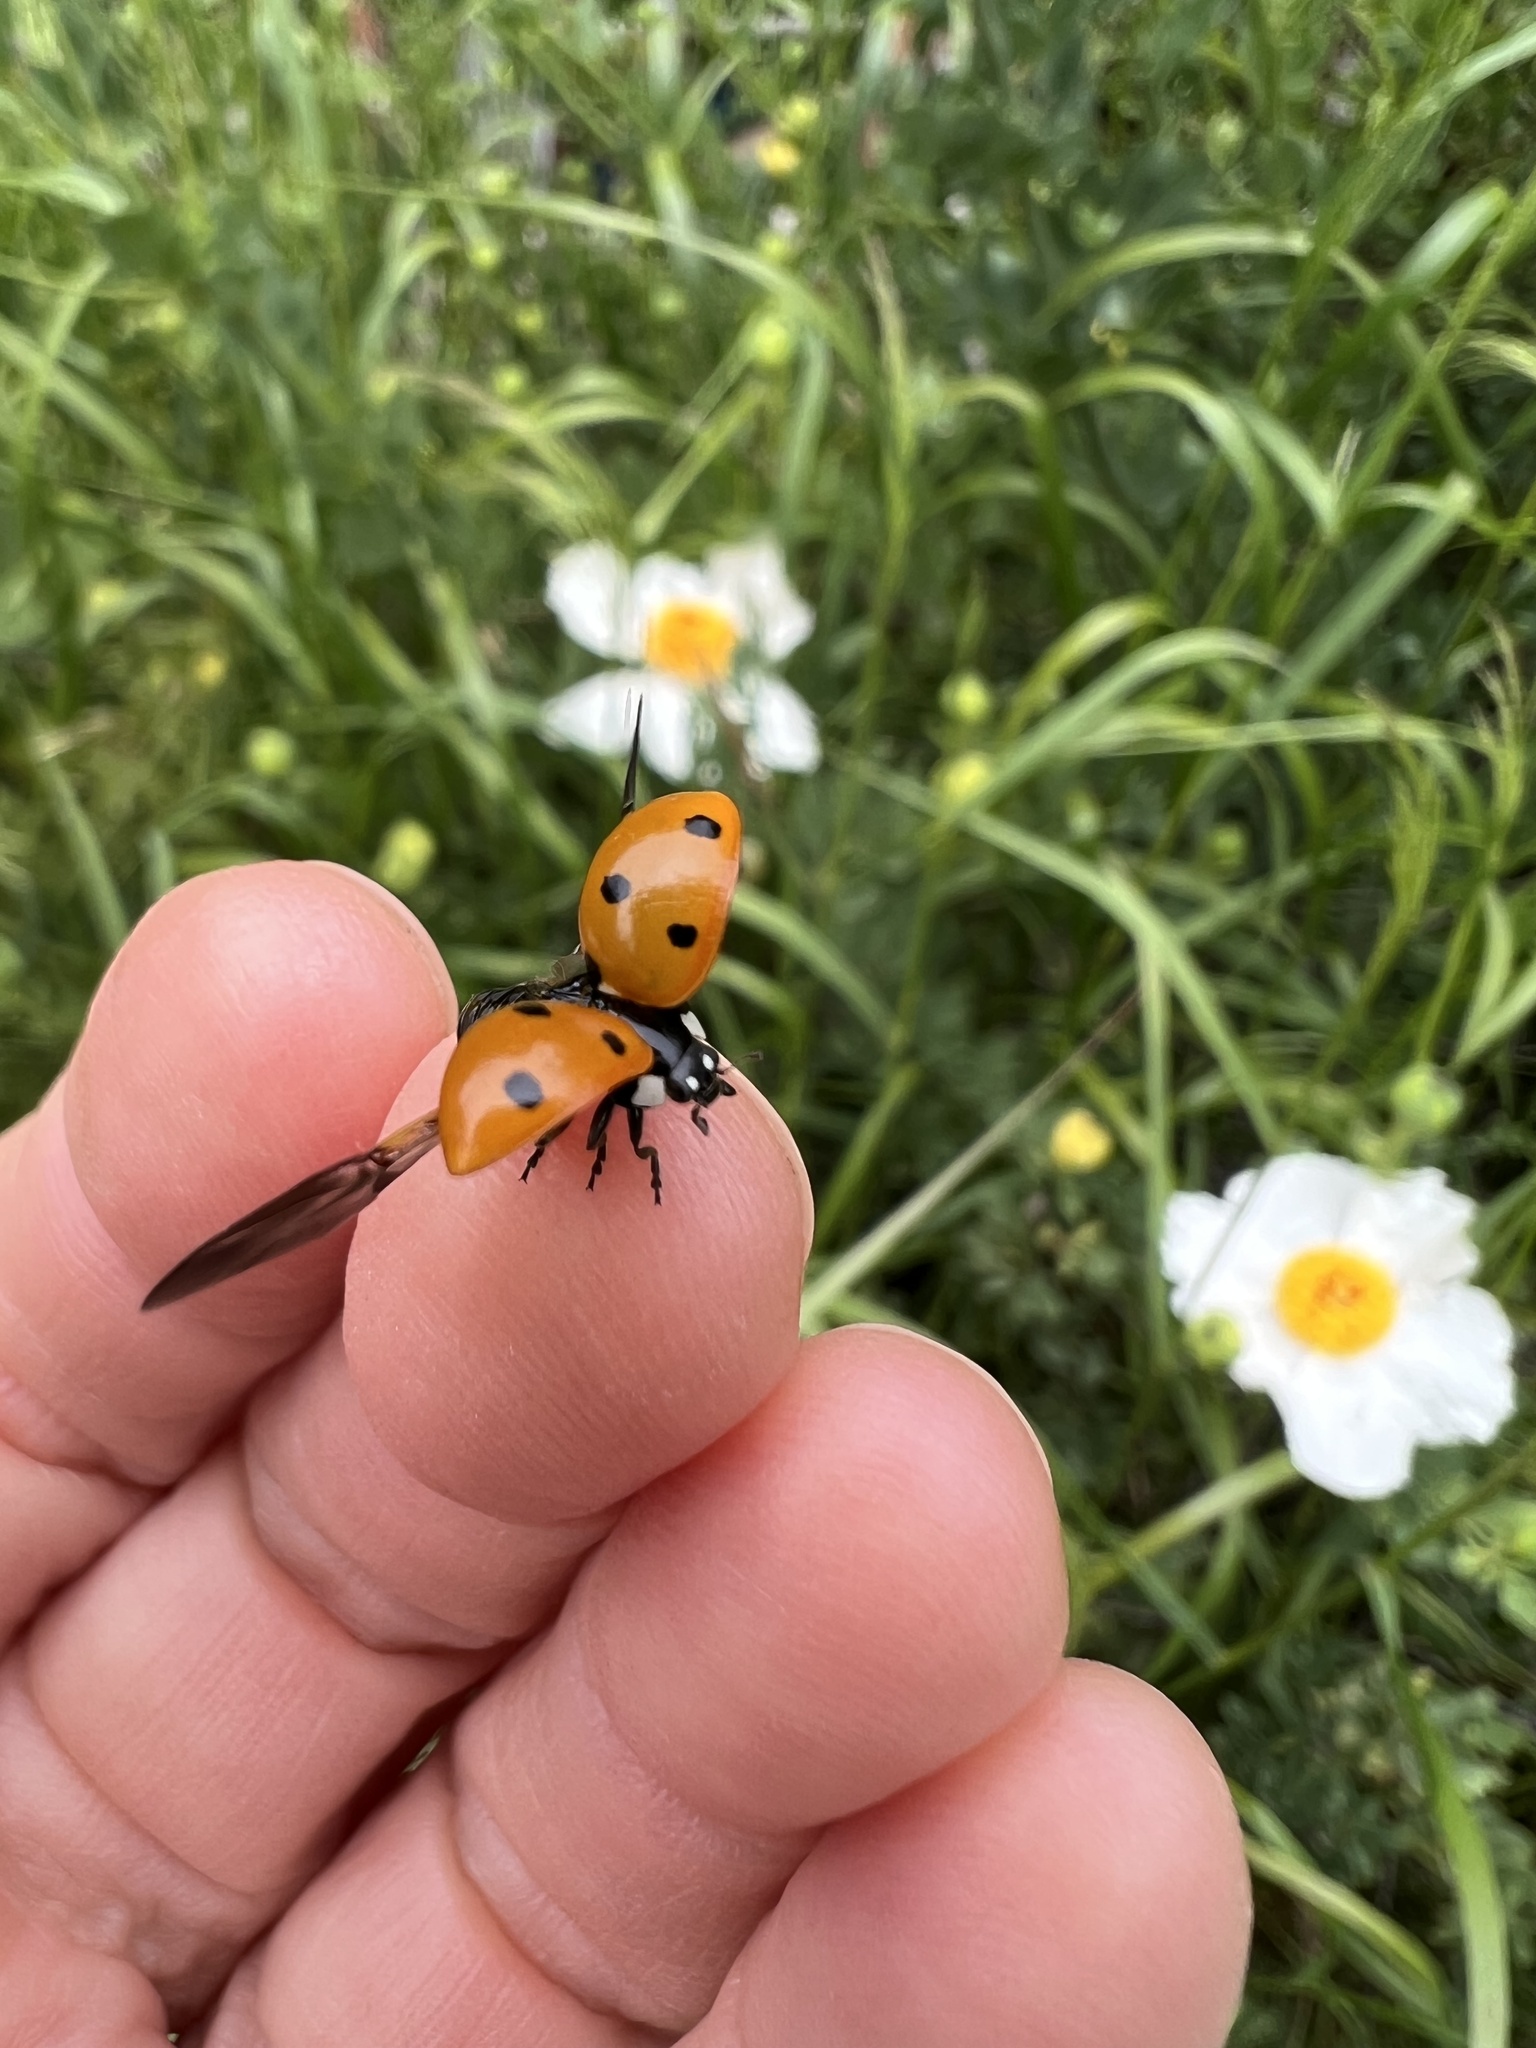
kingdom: Animalia
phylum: Arthropoda
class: Insecta
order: Coleoptera
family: Coccinellidae
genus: Coccinella
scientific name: Coccinella septempunctata
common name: Sevenspotted lady beetle
